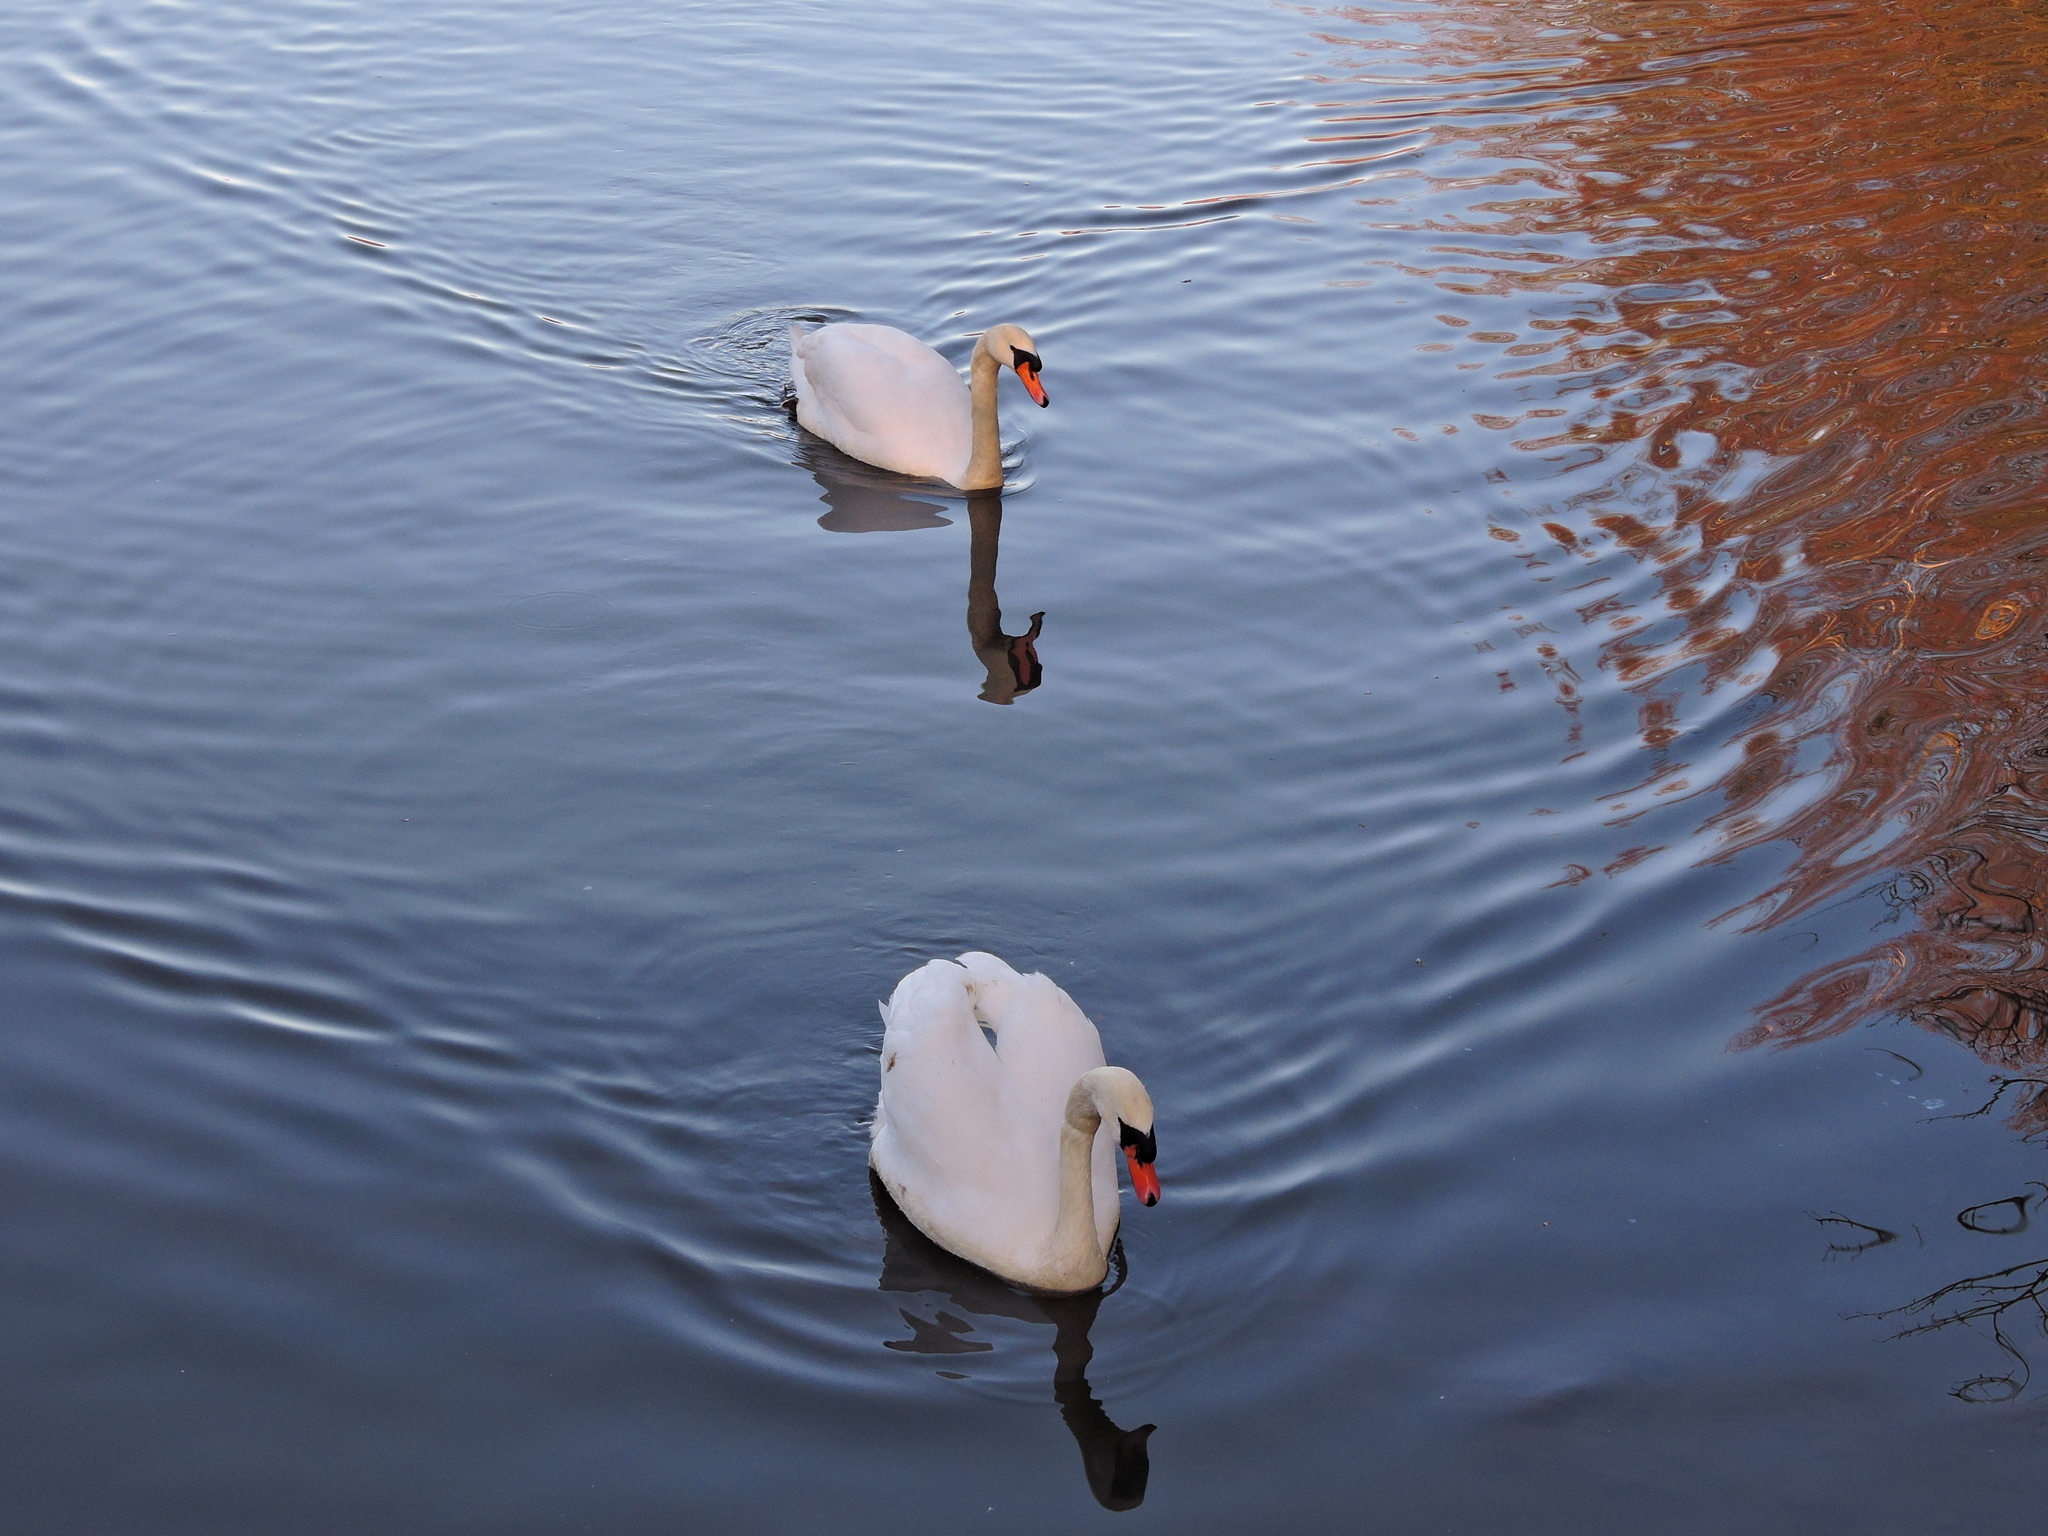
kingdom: Animalia
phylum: Chordata
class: Aves
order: Anseriformes
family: Anatidae
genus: Cygnus
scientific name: Cygnus olor
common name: Mute swan
